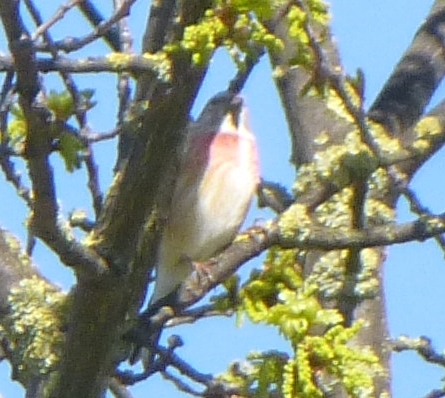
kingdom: Animalia
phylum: Chordata
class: Aves
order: Passeriformes
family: Fringillidae
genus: Linaria
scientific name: Linaria cannabina
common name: Common linnet
